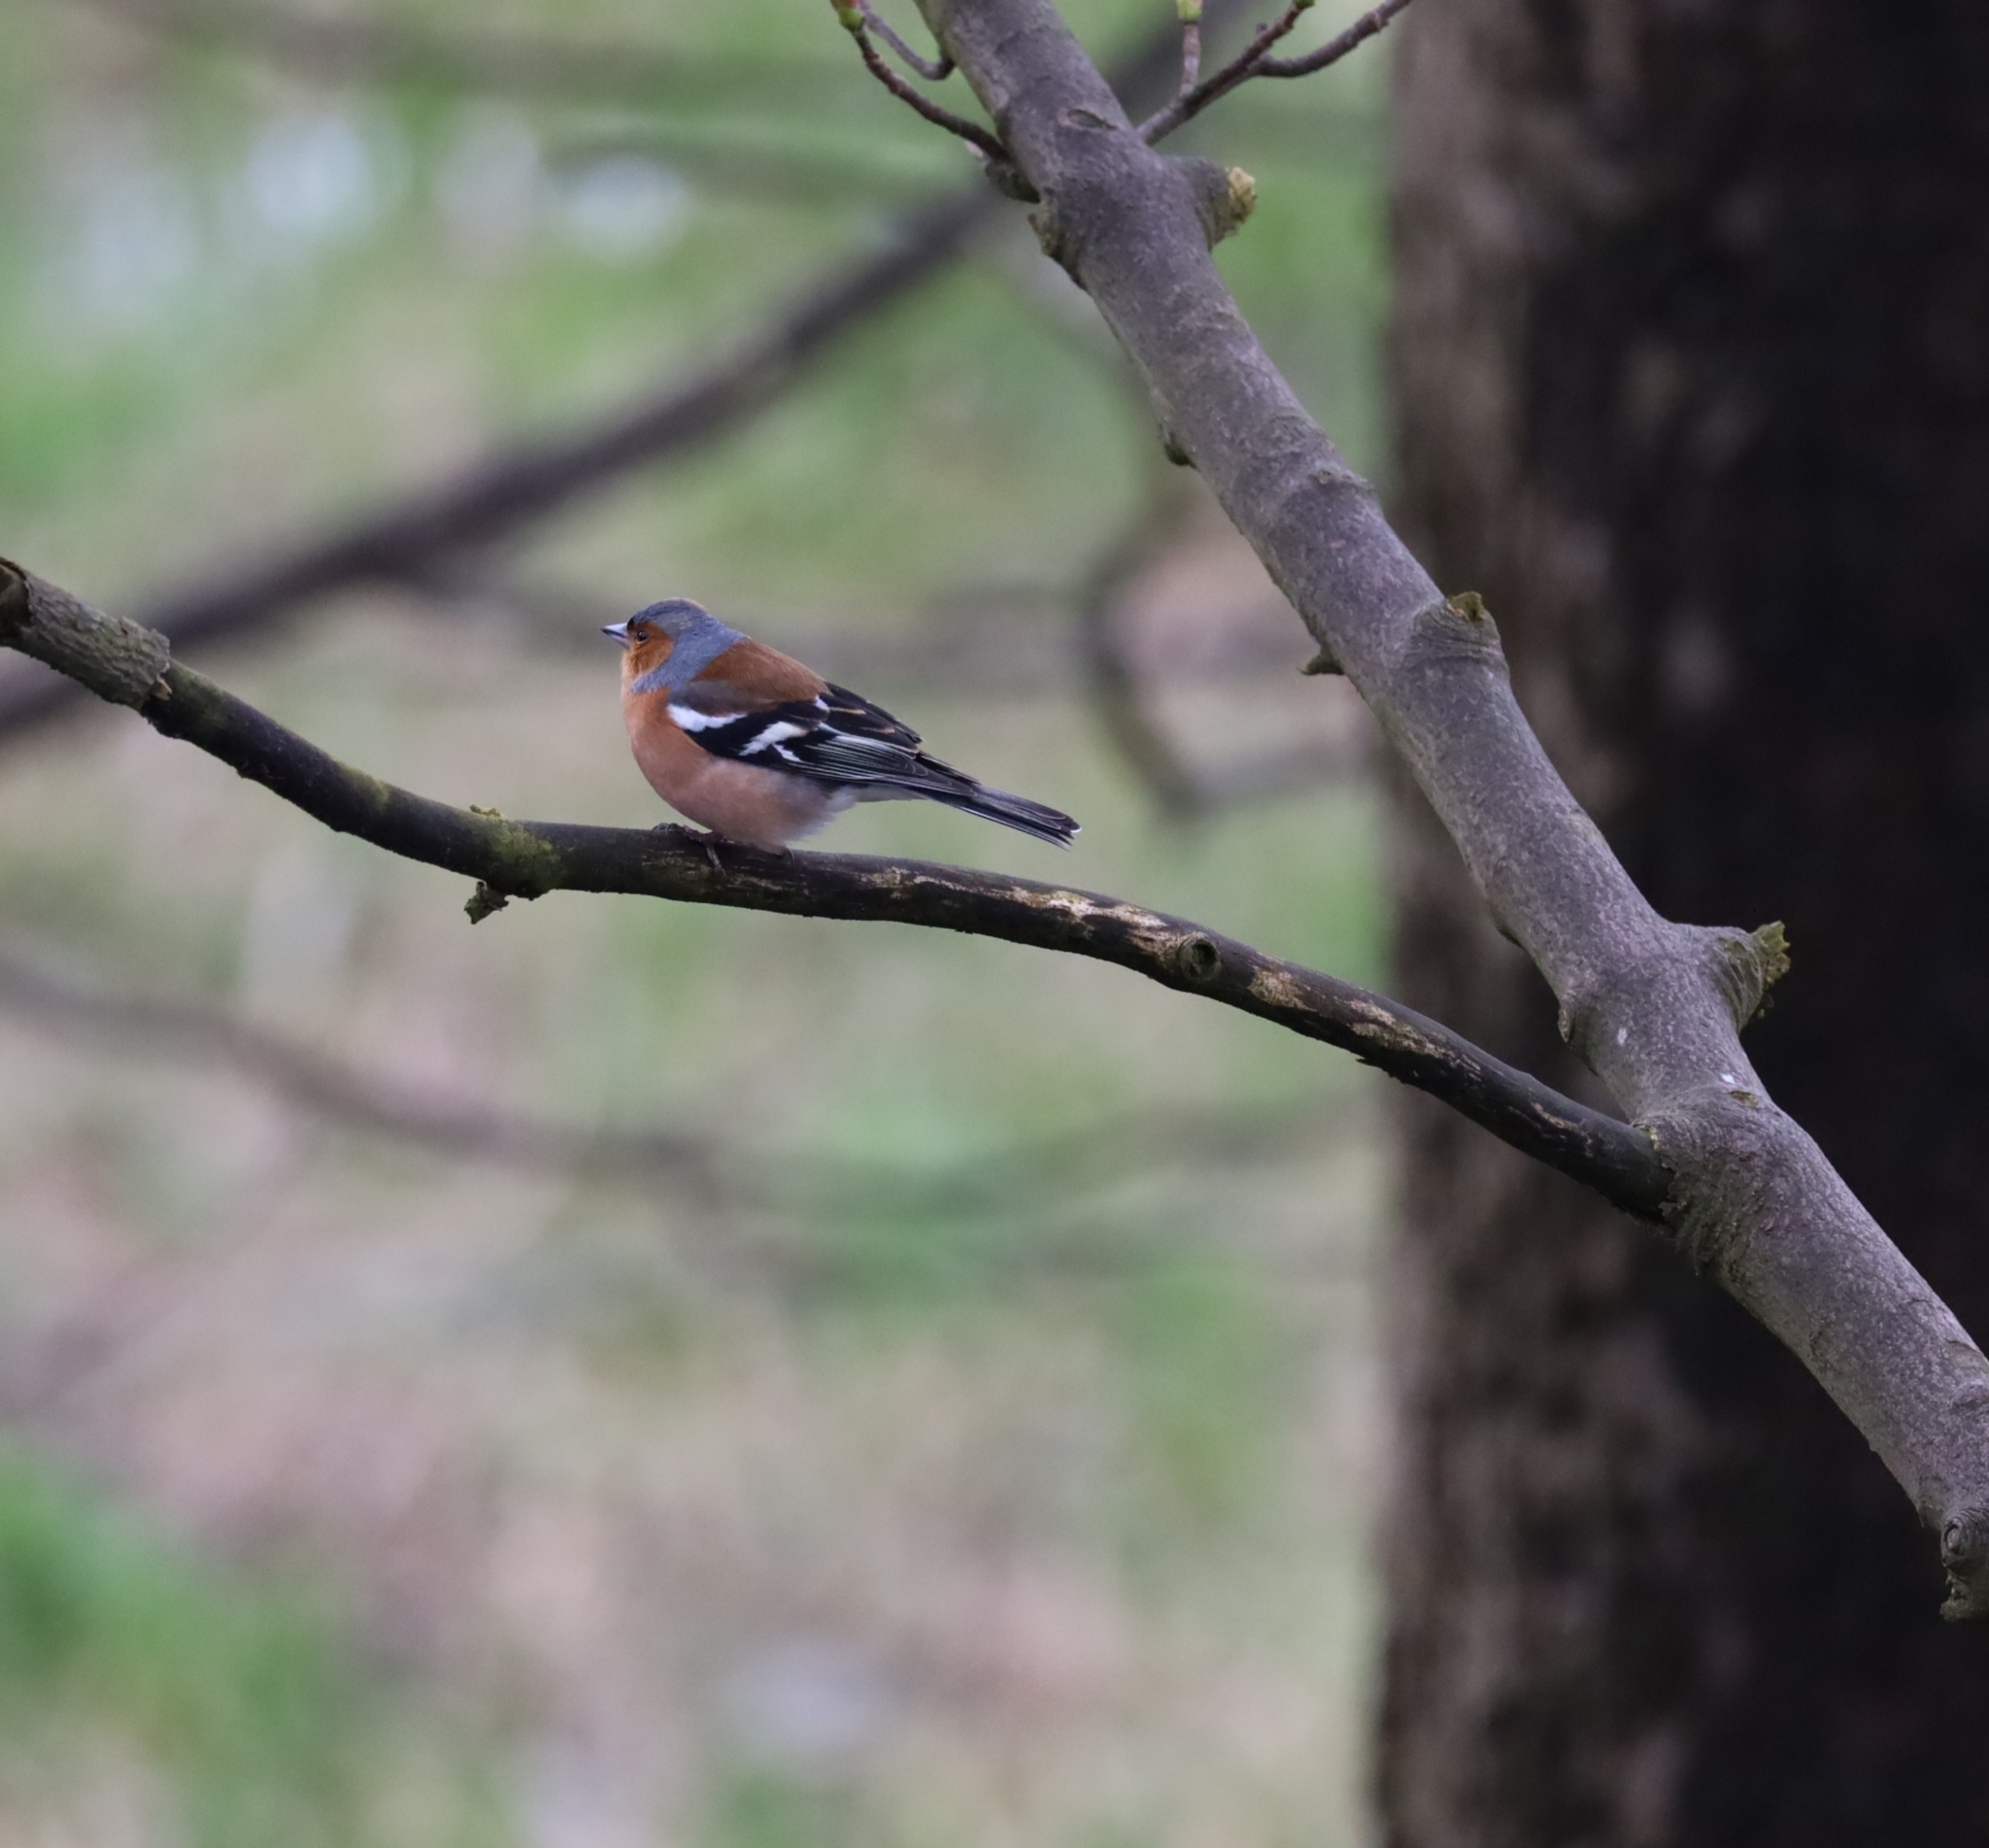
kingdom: Animalia
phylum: Chordata
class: Aves
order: Passeriformes
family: Fringillidae
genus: Fringilla
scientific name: Fringilla coelebs
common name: Common chaffinch
